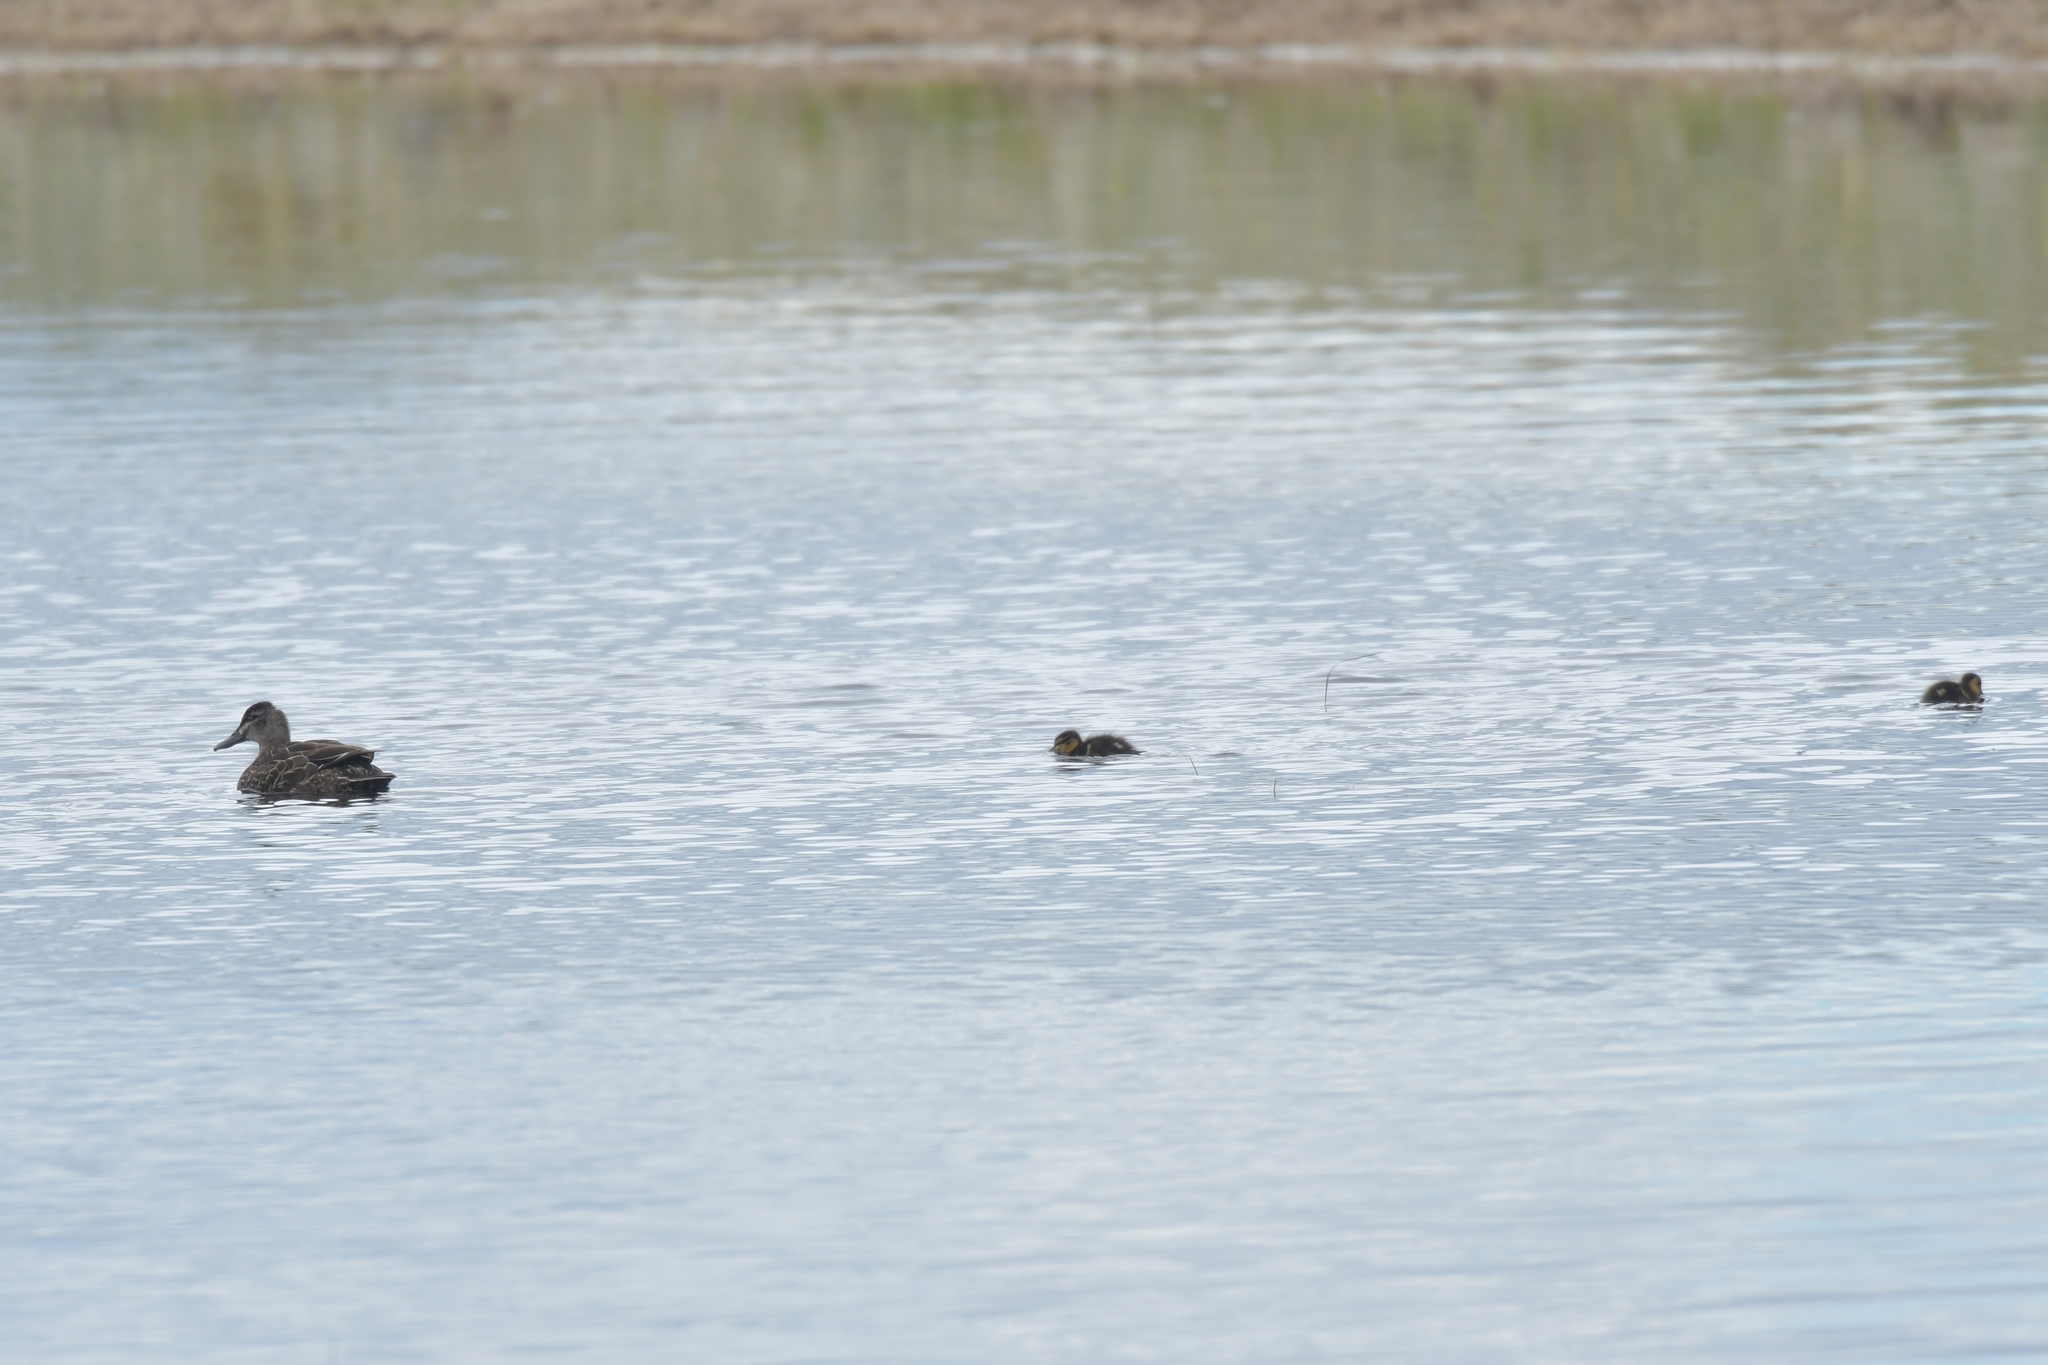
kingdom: Animalia
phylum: Chordata
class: Aves
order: Anseriformes
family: Anatidae
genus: Anas
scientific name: Anas
